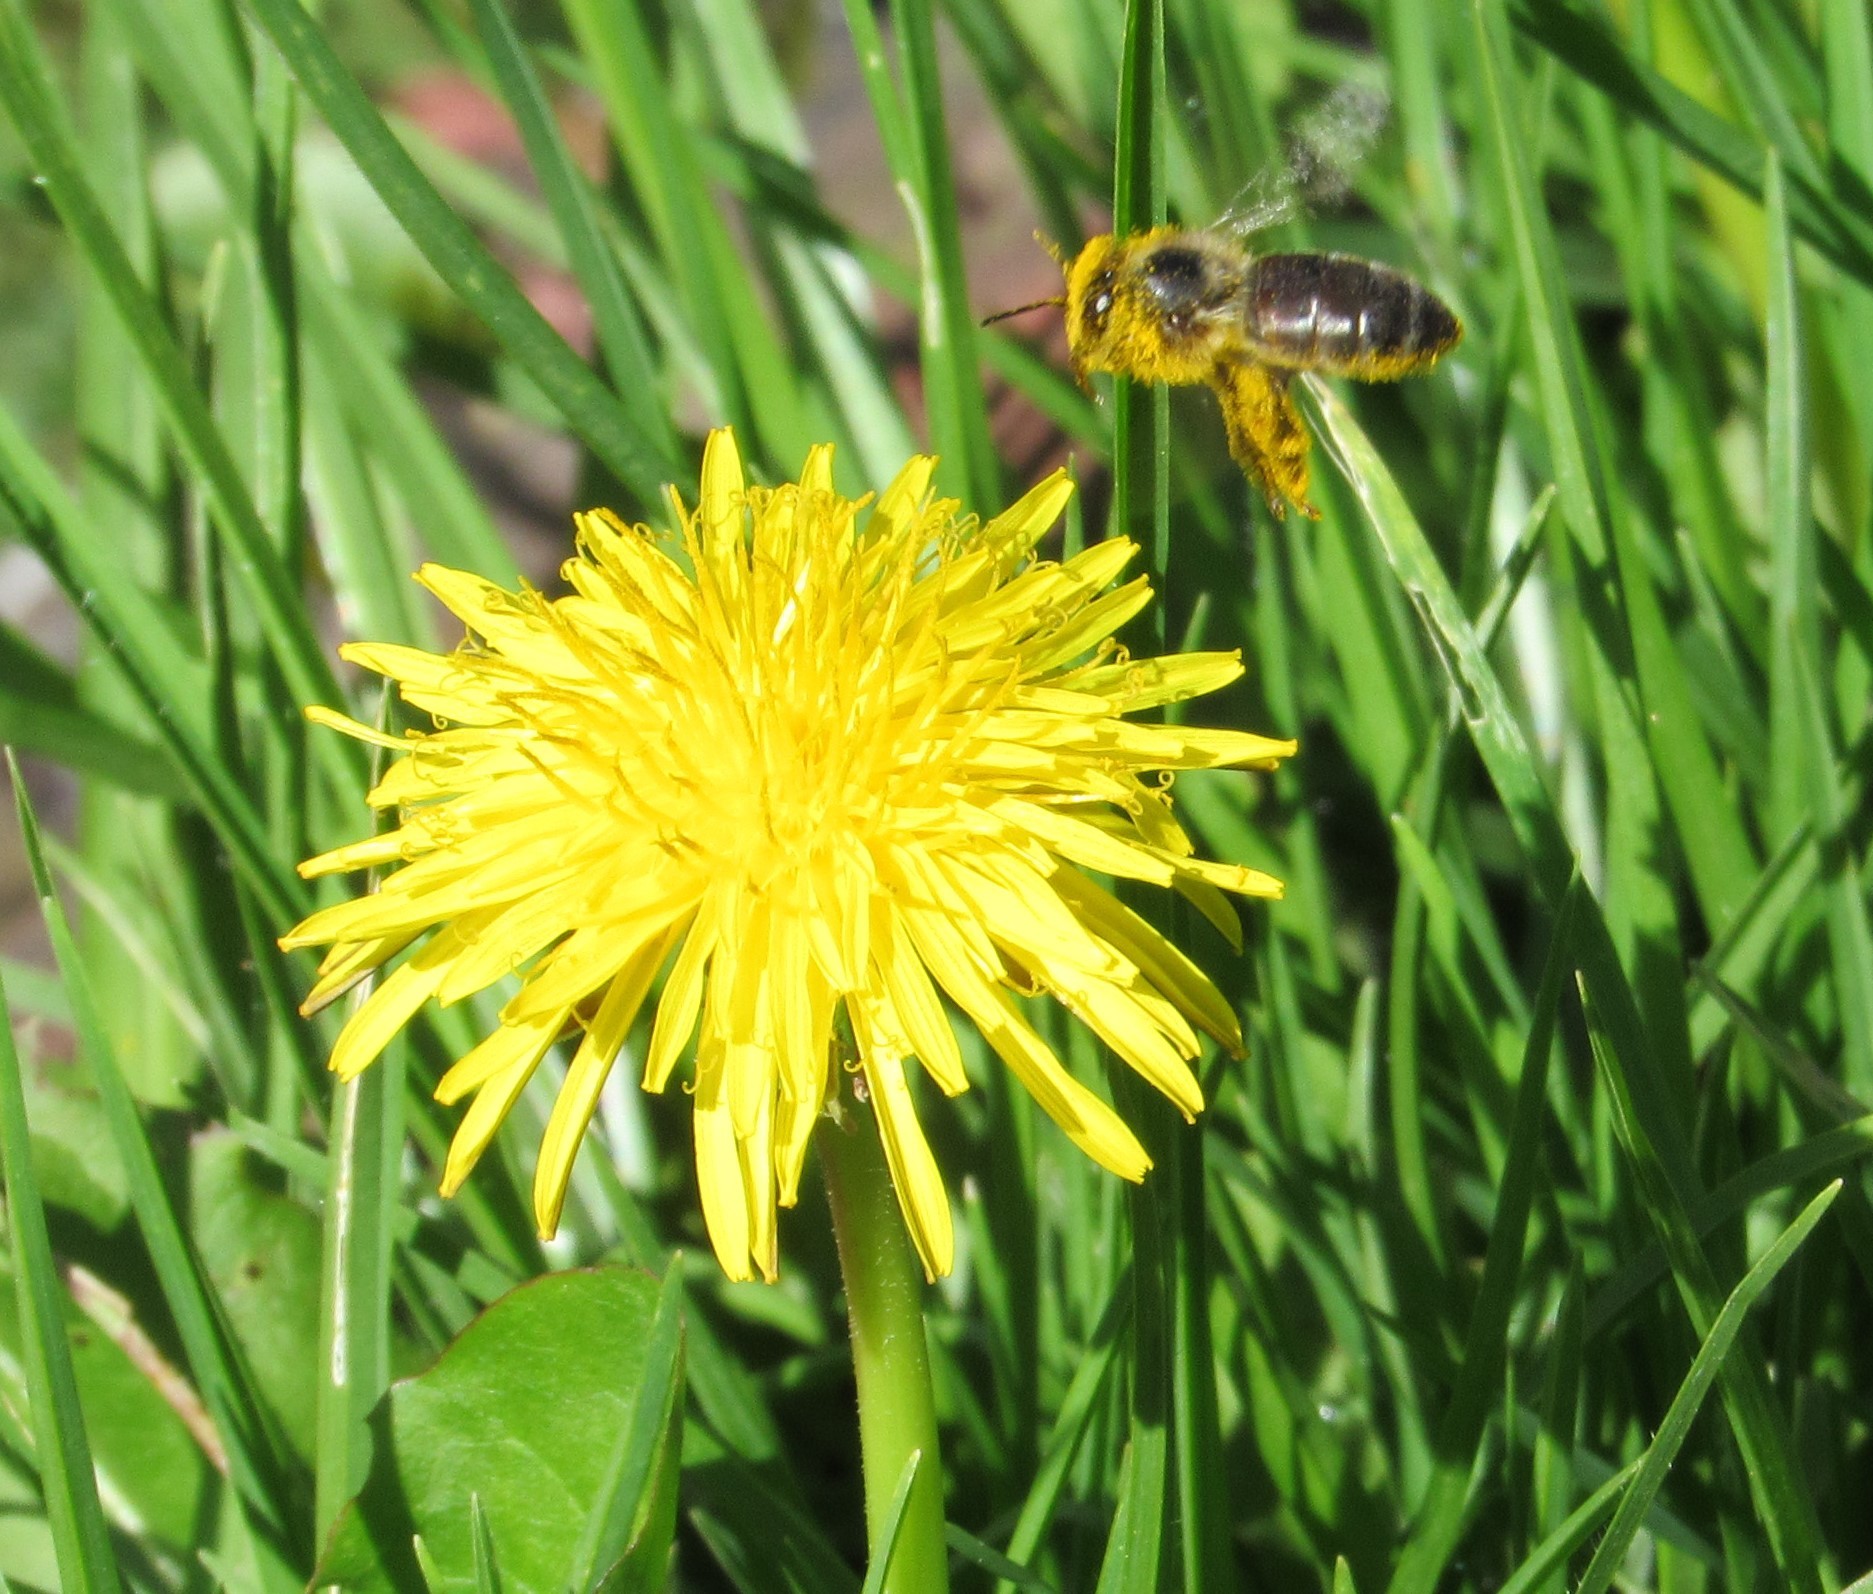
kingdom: Animalia
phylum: Arthropoda
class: Insecta
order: Hymenoptera
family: Apidae
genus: Apis
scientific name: Apis mellifera
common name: Honey bee
